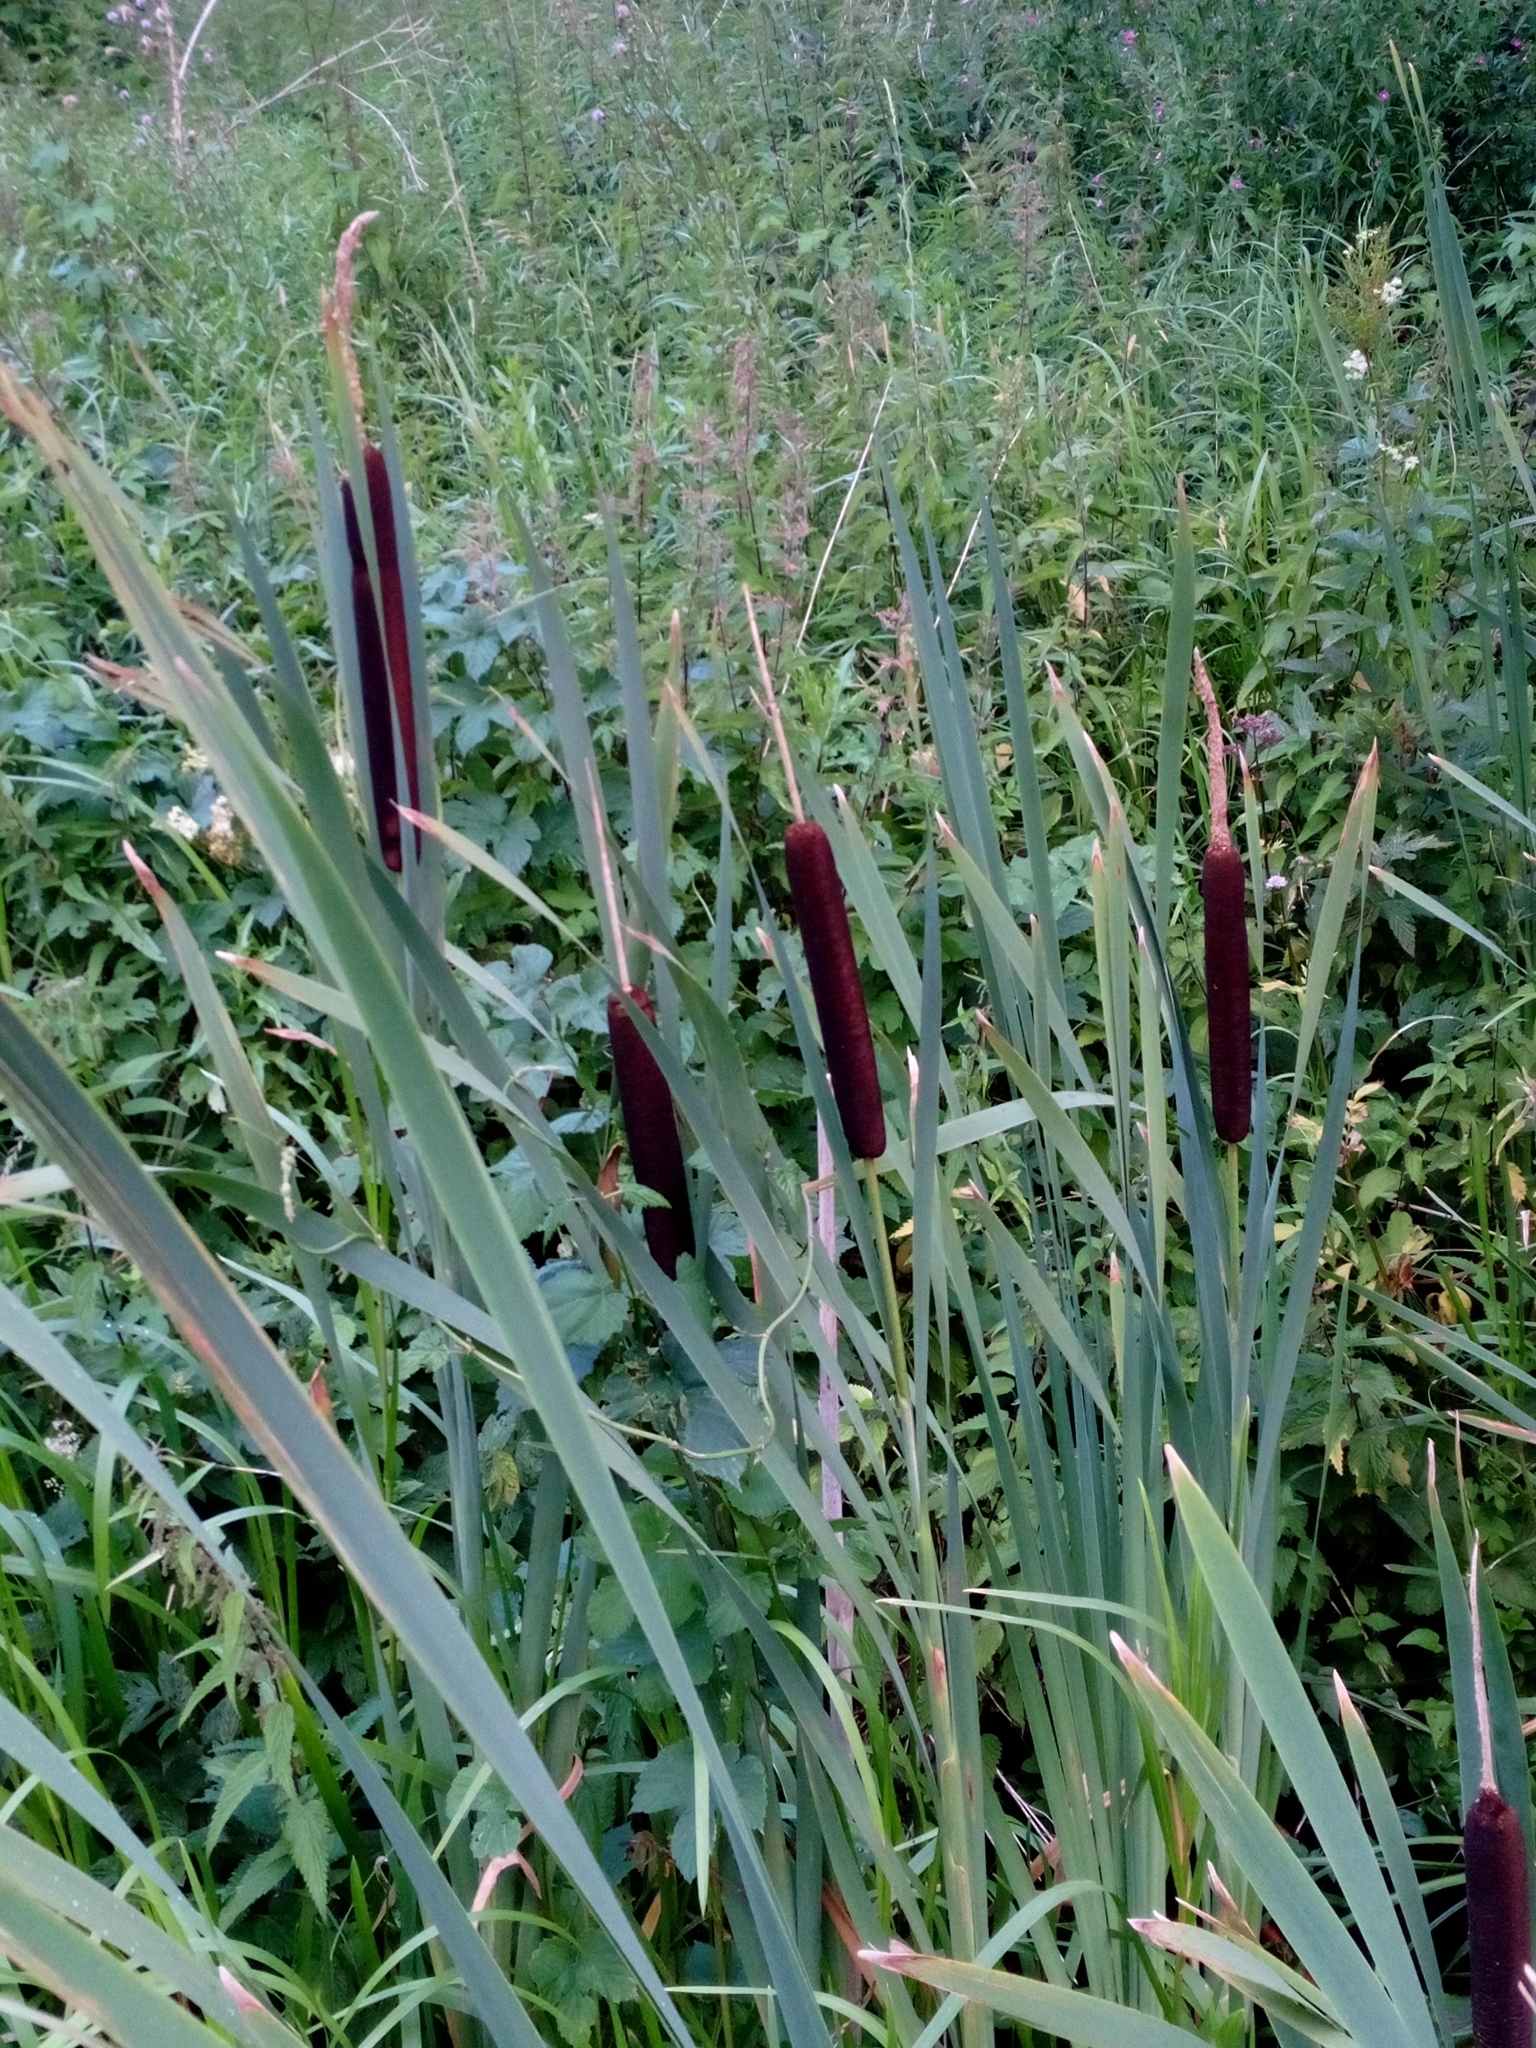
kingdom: Plantae
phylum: Tracheophyta
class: Liliopsida
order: Poales
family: Typhaceae
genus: Typha
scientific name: Typha latifolia
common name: Broadleaf cattail
